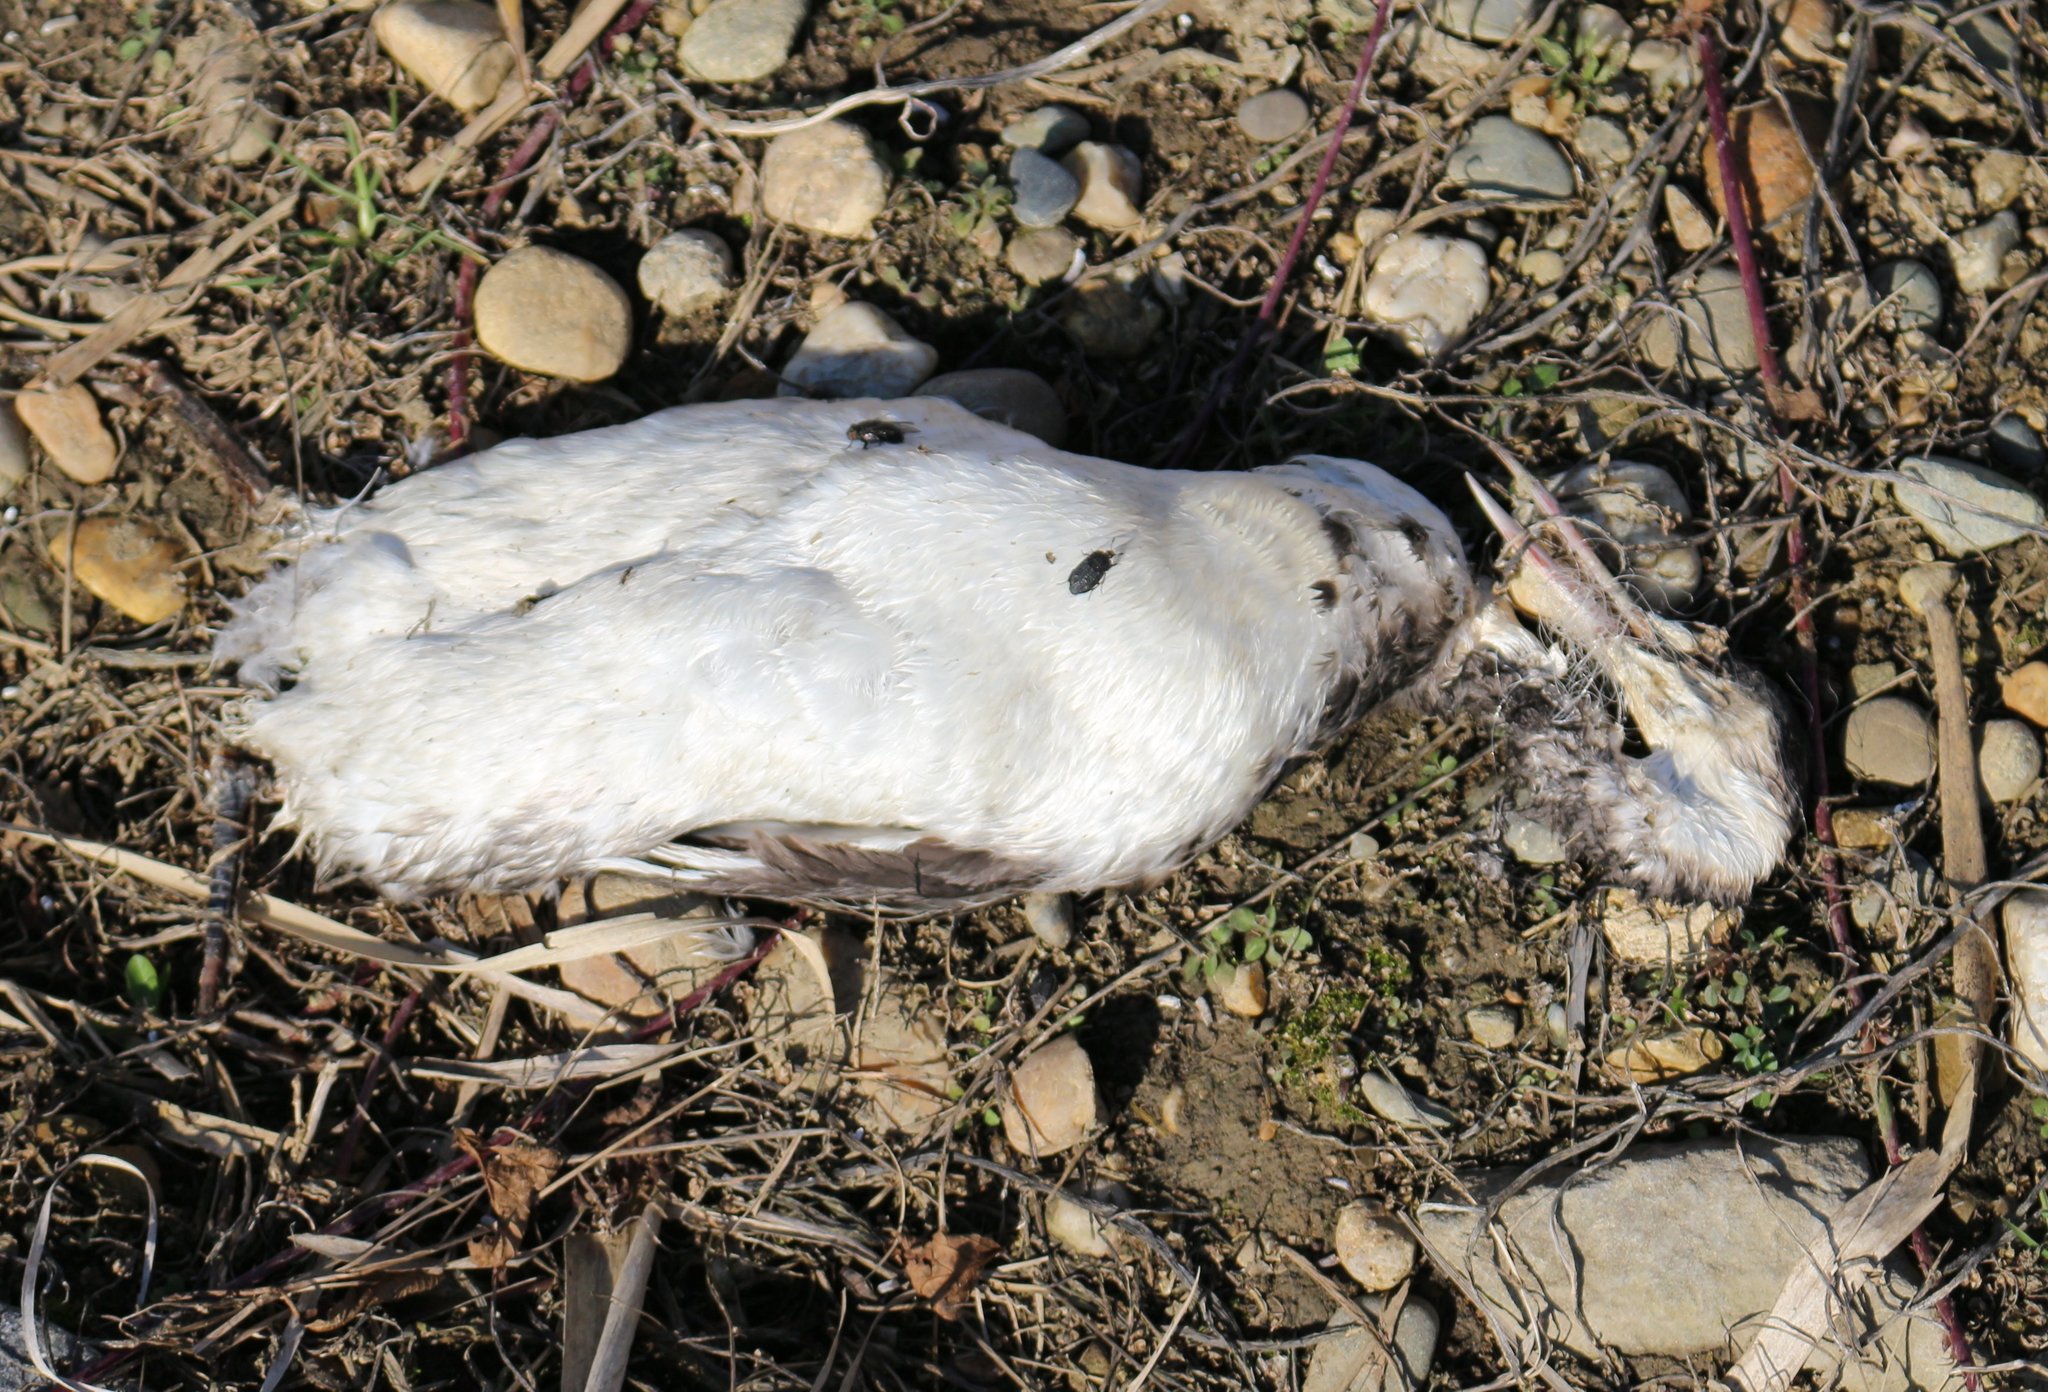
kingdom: Animalia
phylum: Chordata
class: Aves
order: Podicipediformes
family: Podicipedidae
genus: Podiceps
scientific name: Podiceps cristatus
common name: Great crested grebe
